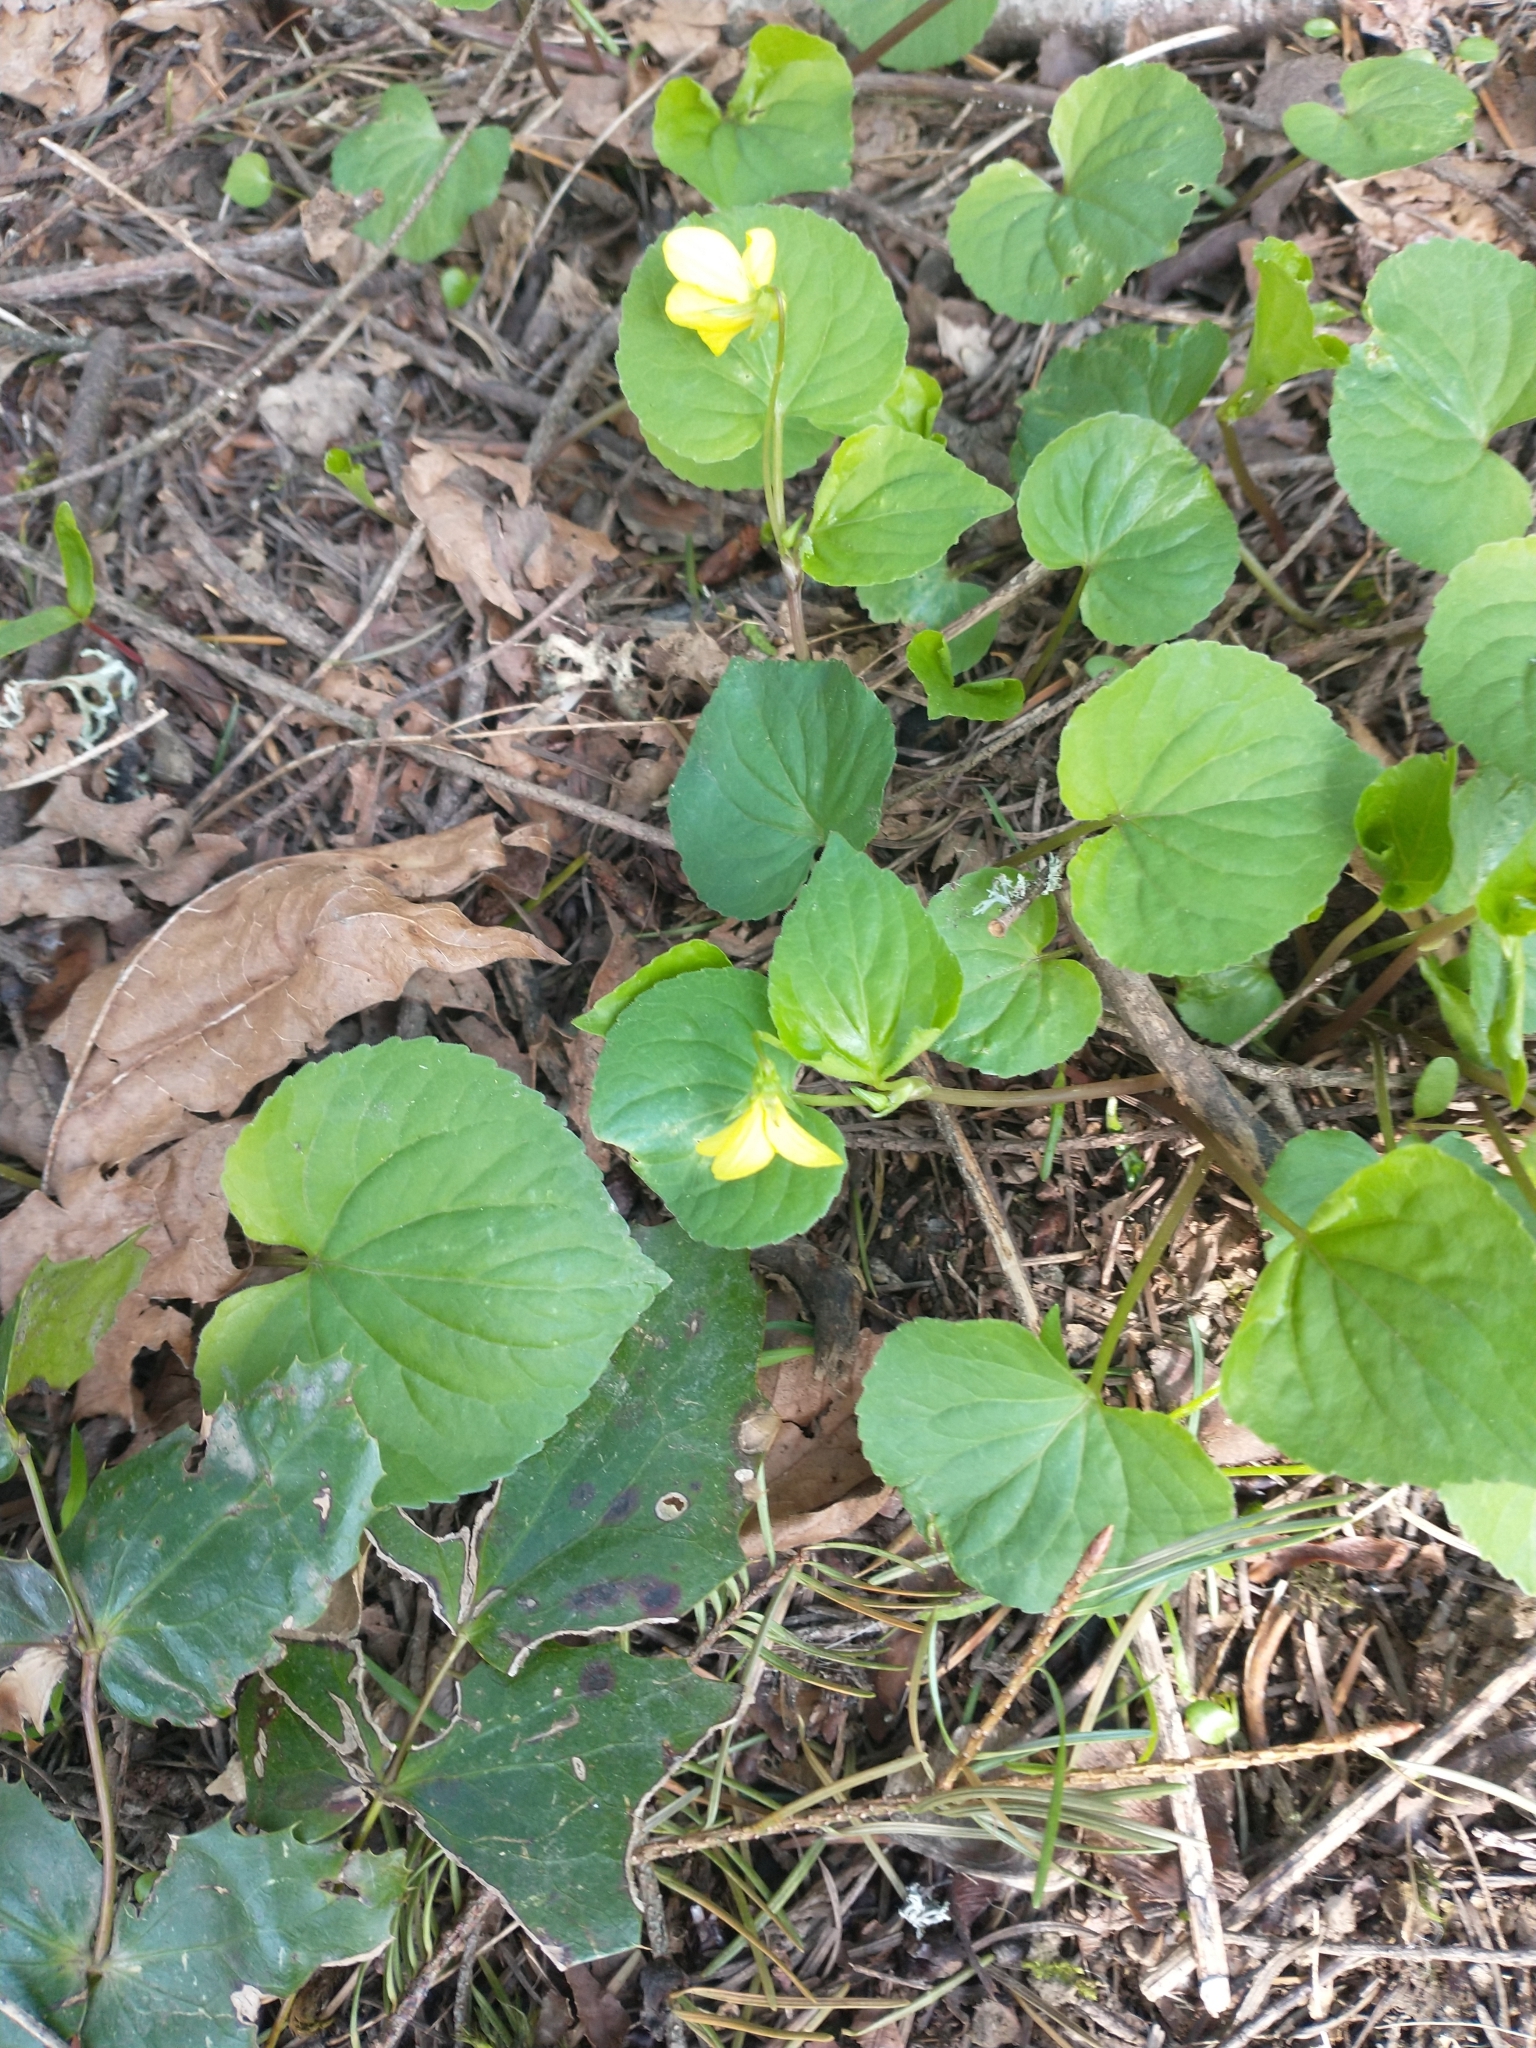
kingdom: Plantae
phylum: Tracheophyta
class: Magnoliopsida
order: Malpighiales
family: Violaceae
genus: Viola
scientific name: Viola glabella
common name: Stream violet
